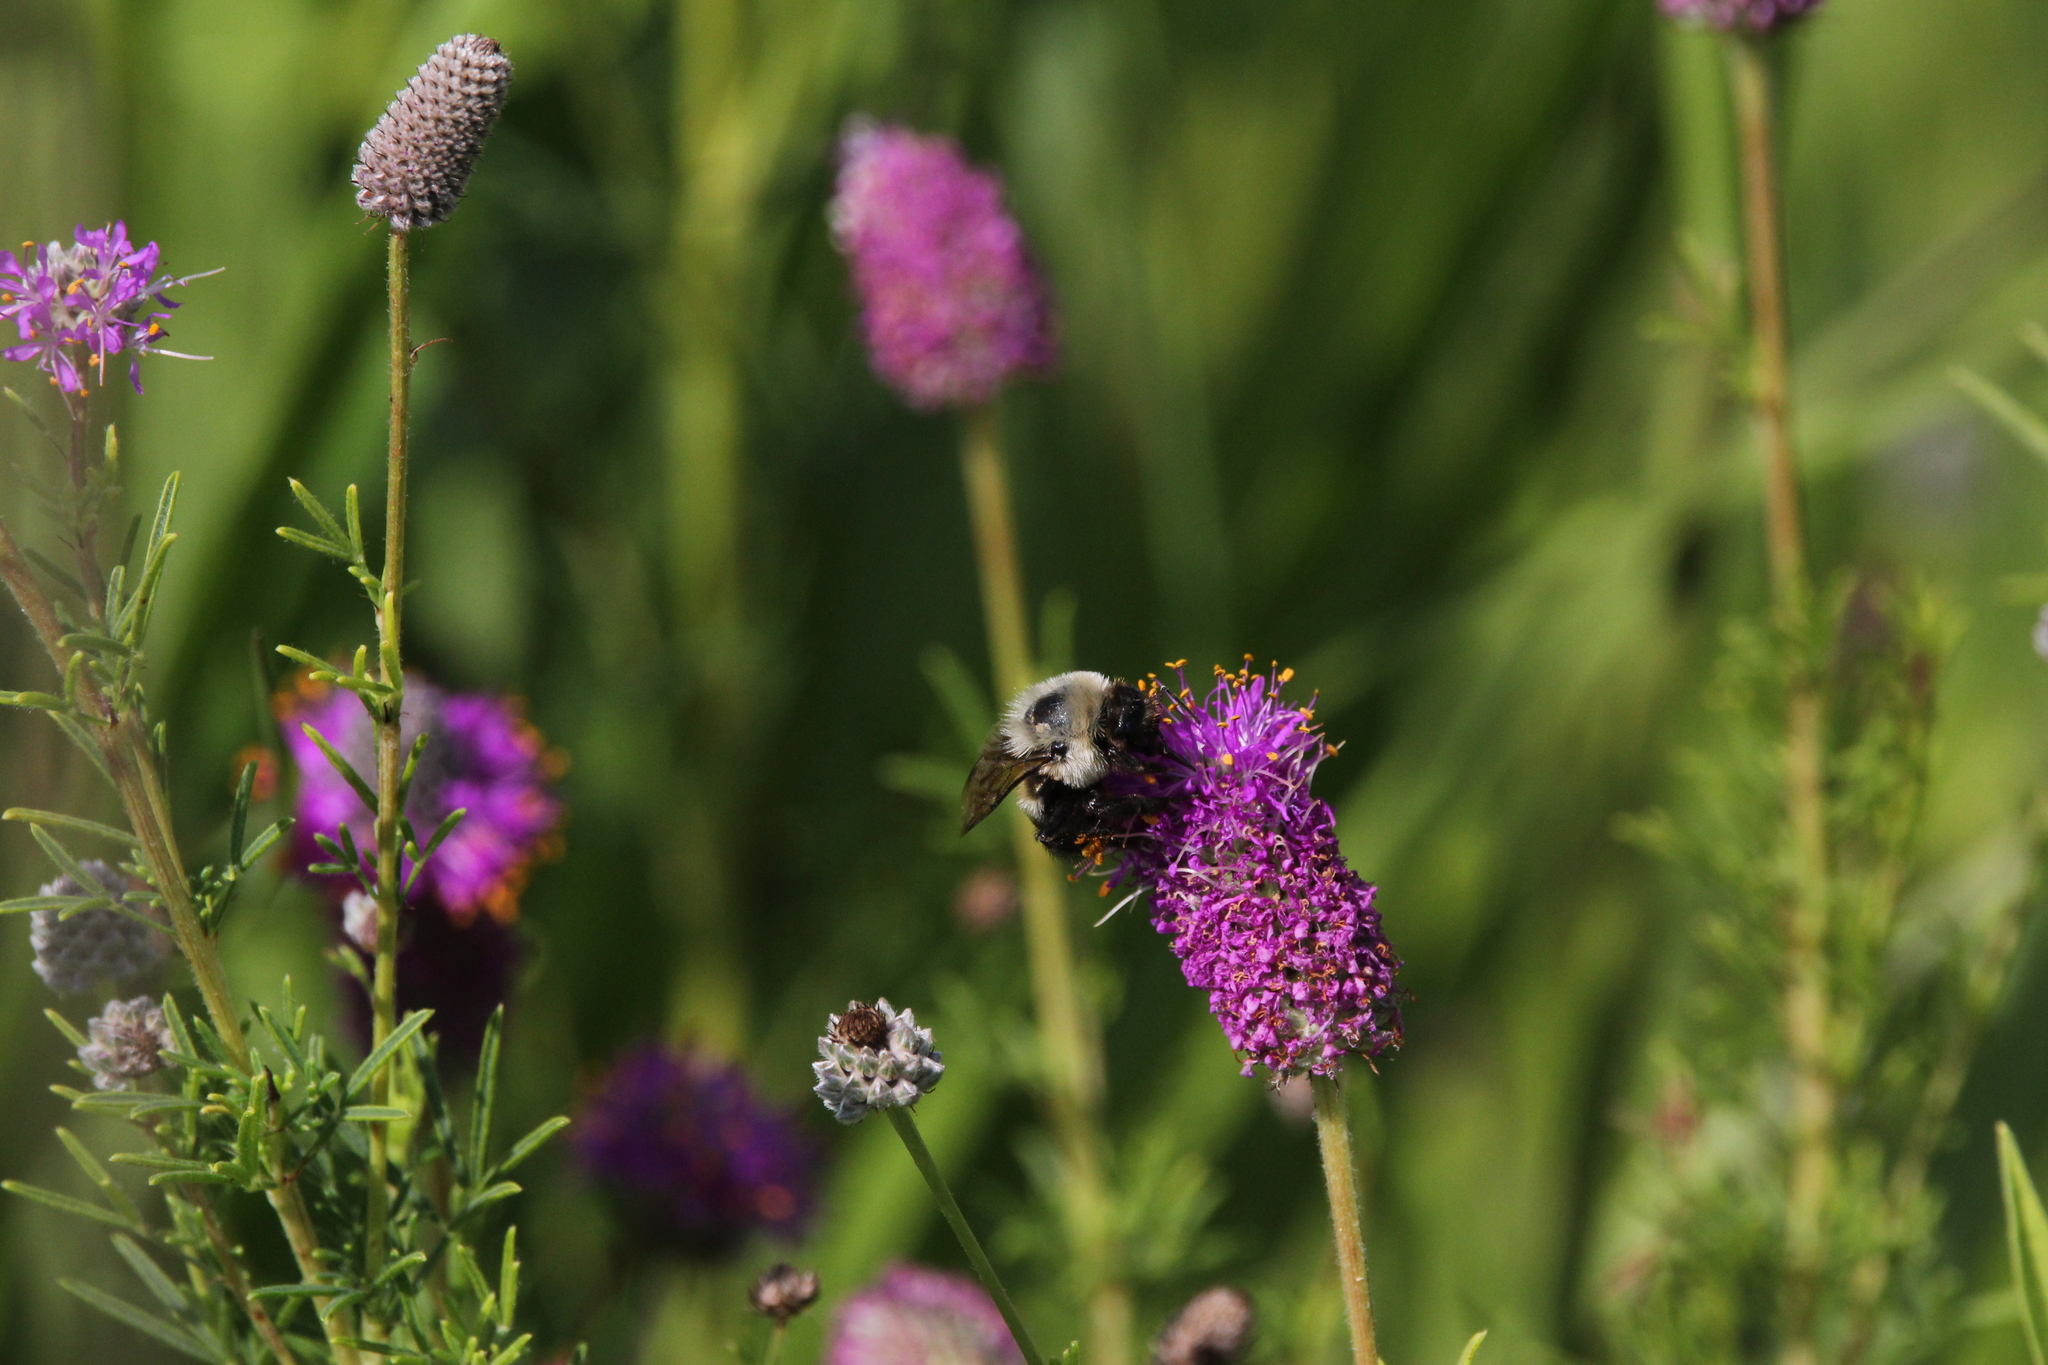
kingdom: Plantae
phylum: Tracheophyta
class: Magnoliopsida
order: Fabales
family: Fabaceae
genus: Dalea
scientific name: Dalea purpurea
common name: Purple prairie-clover
